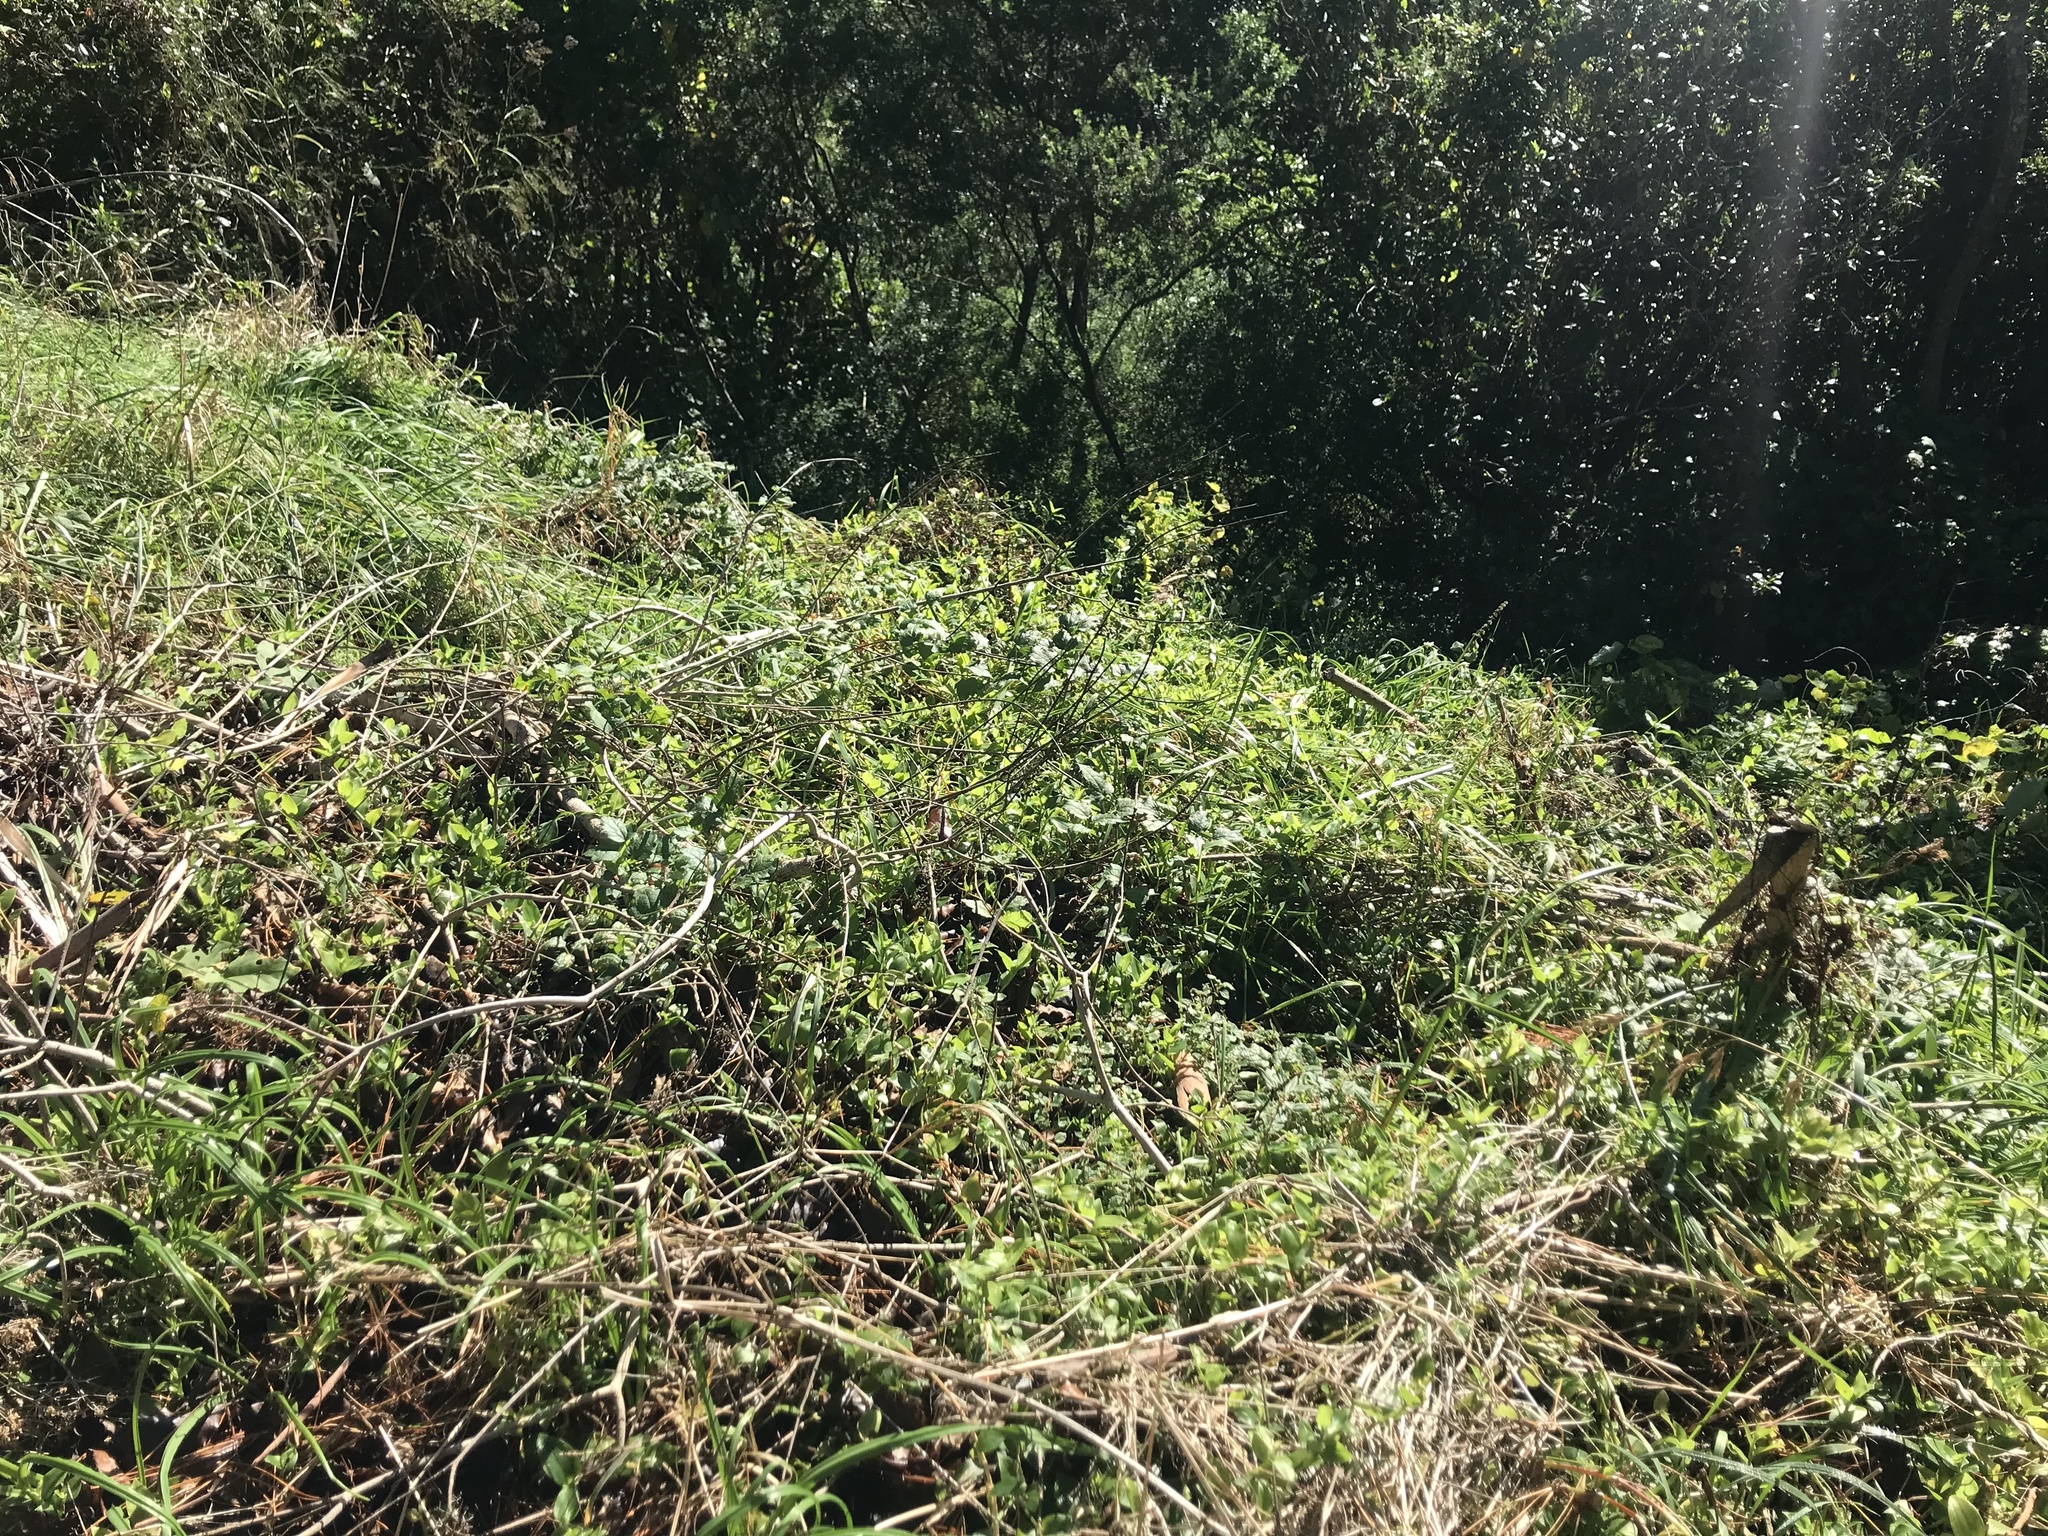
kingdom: Plantae
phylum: Tracheophyta
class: Magnoliopsida
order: Ranunculales
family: Ranunculaceae
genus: Clematis
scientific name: Clematis vitalba
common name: Evergreen clematis
